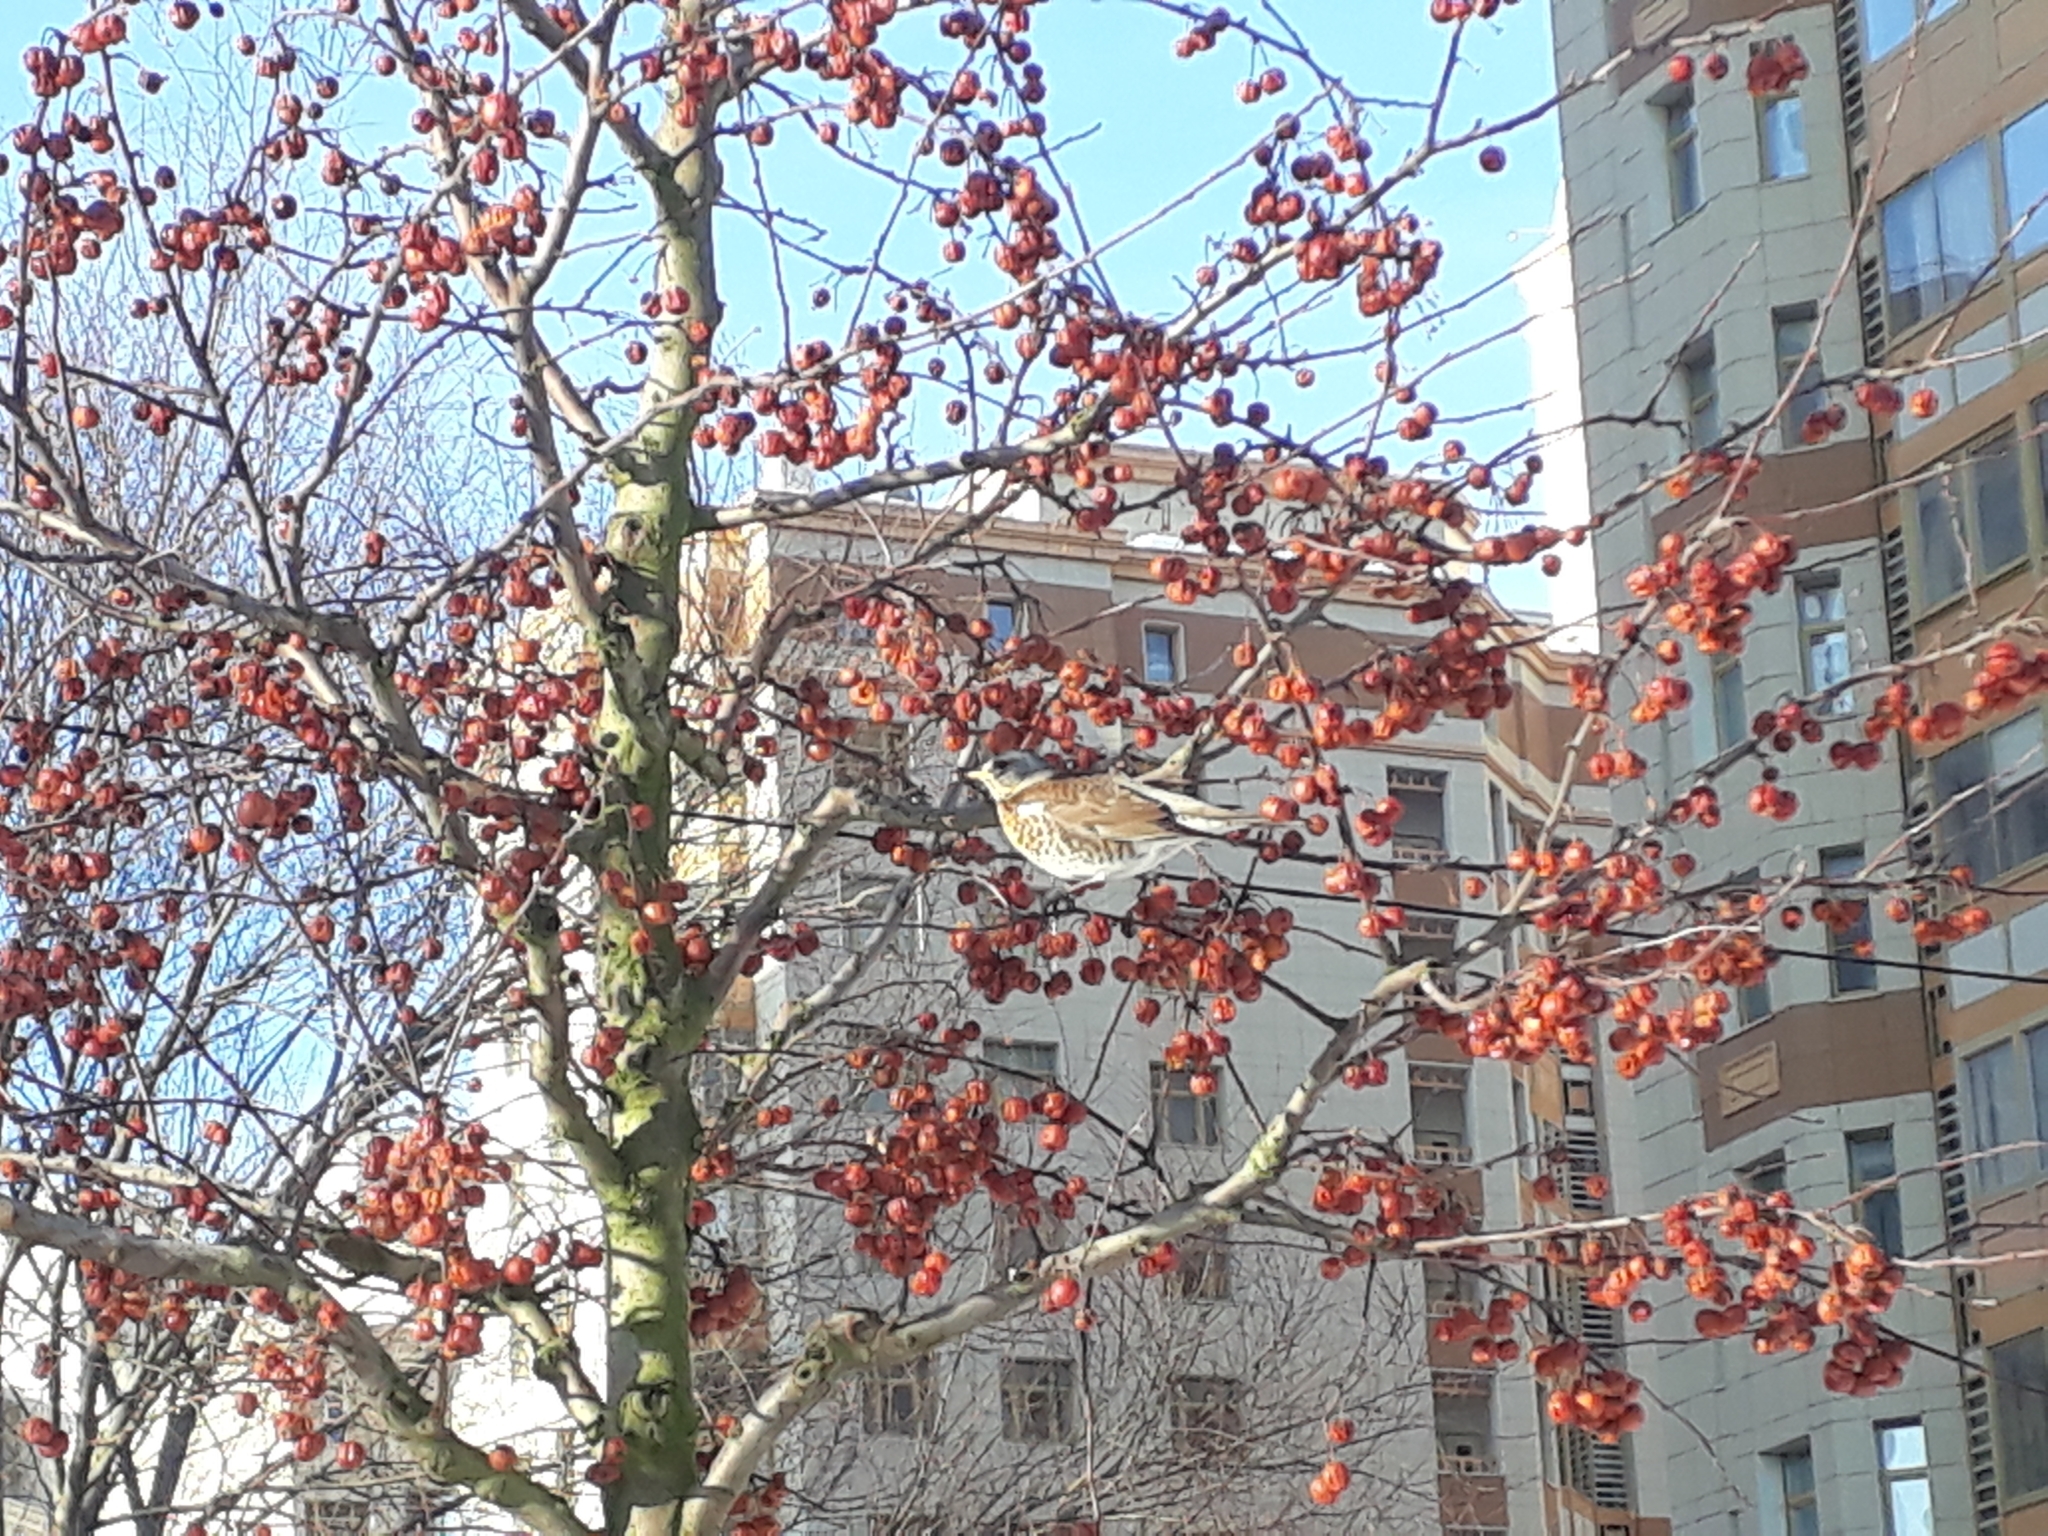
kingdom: Animalia
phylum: Chordata
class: Aves
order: Passeriformes
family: Turdidae
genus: Turdus
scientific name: Turdus pilaris
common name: Fieldfare
